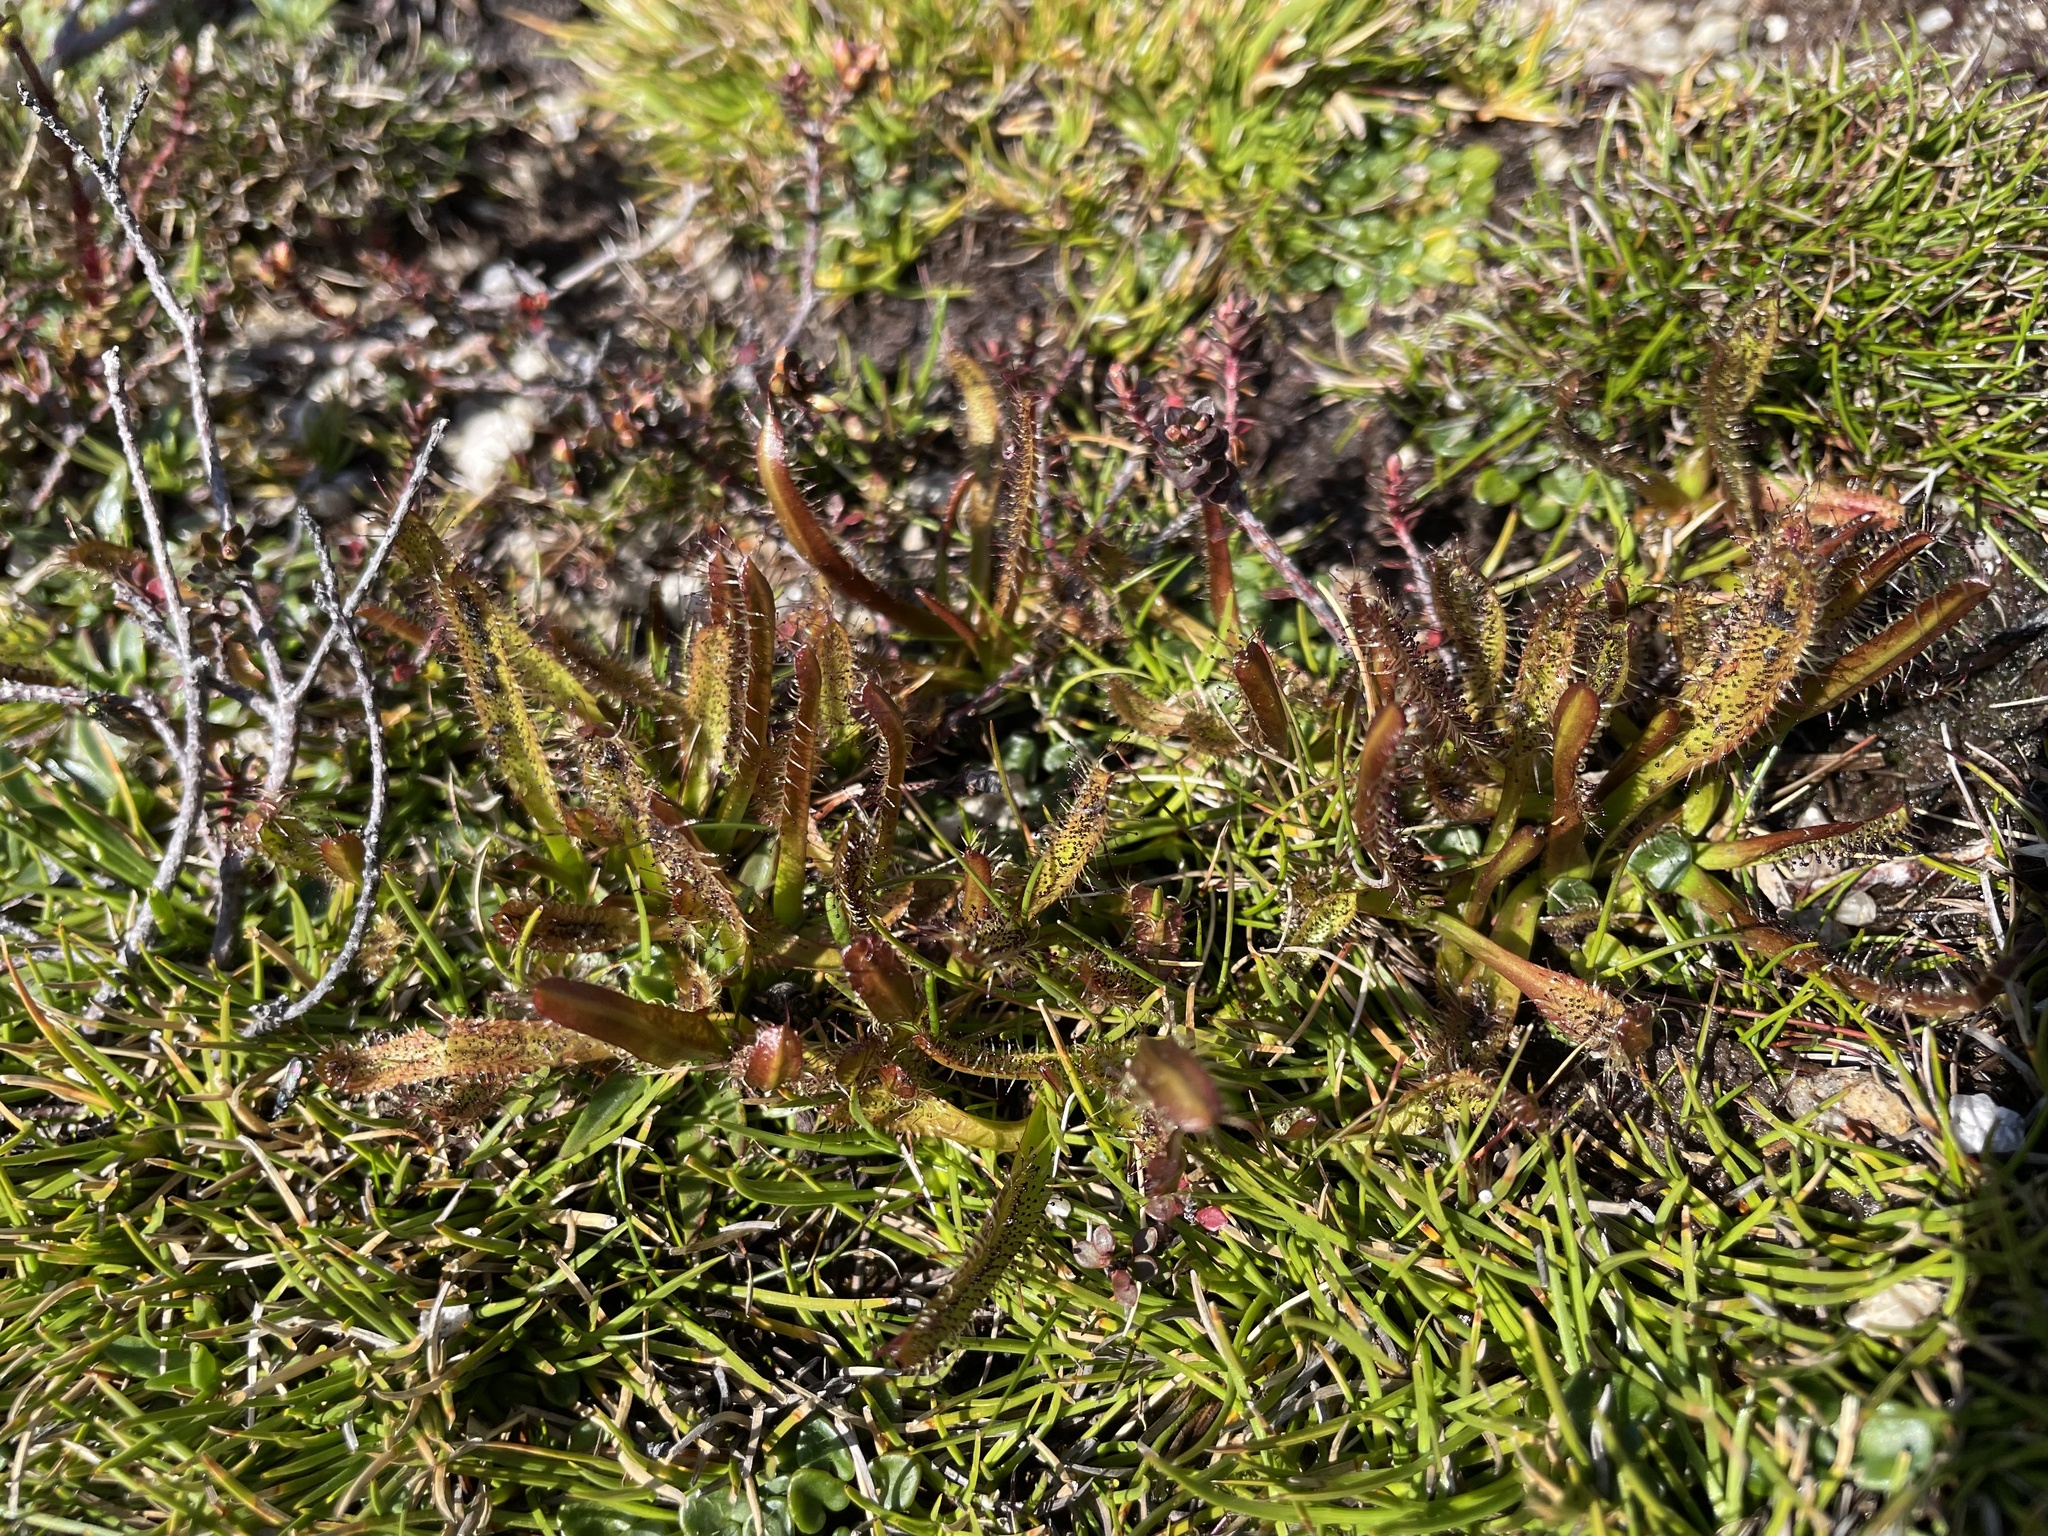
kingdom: Plantae
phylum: Tracheophyta
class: Magnoliopsida
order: Caryophyllales
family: Droseraceae
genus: Drosera
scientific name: Drosera arcturi
